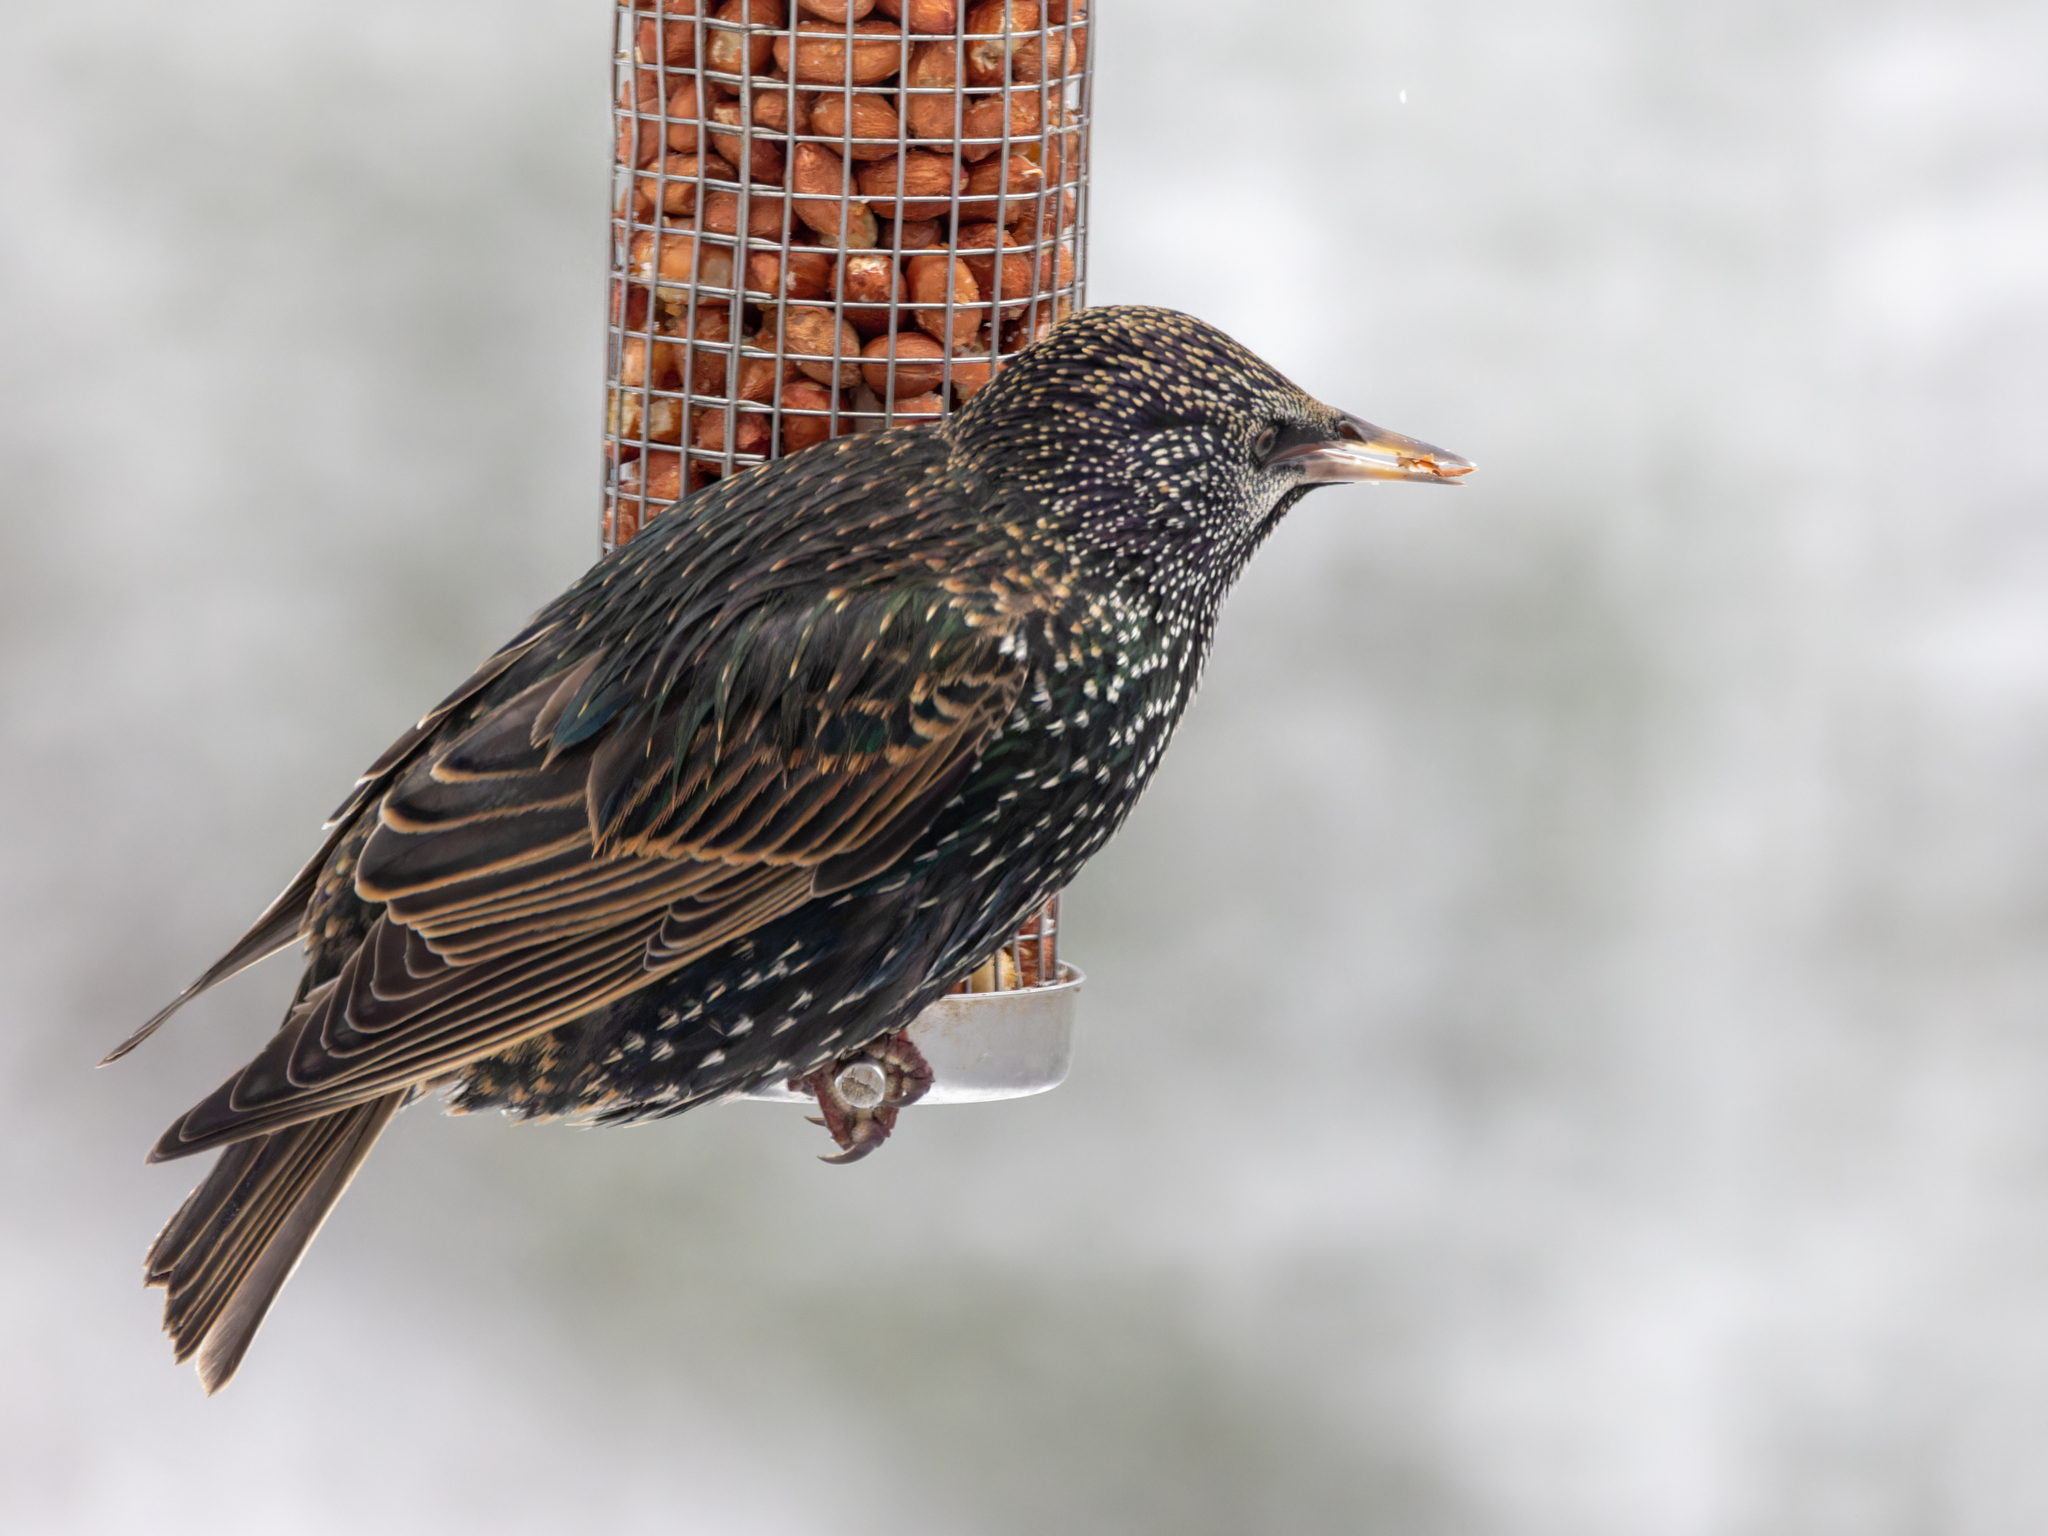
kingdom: Animalia
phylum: Chordata
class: Aves
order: Passeriformes
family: Sturnidae
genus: Sturnus
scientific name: Sturnus vulgaris
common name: Common starling
